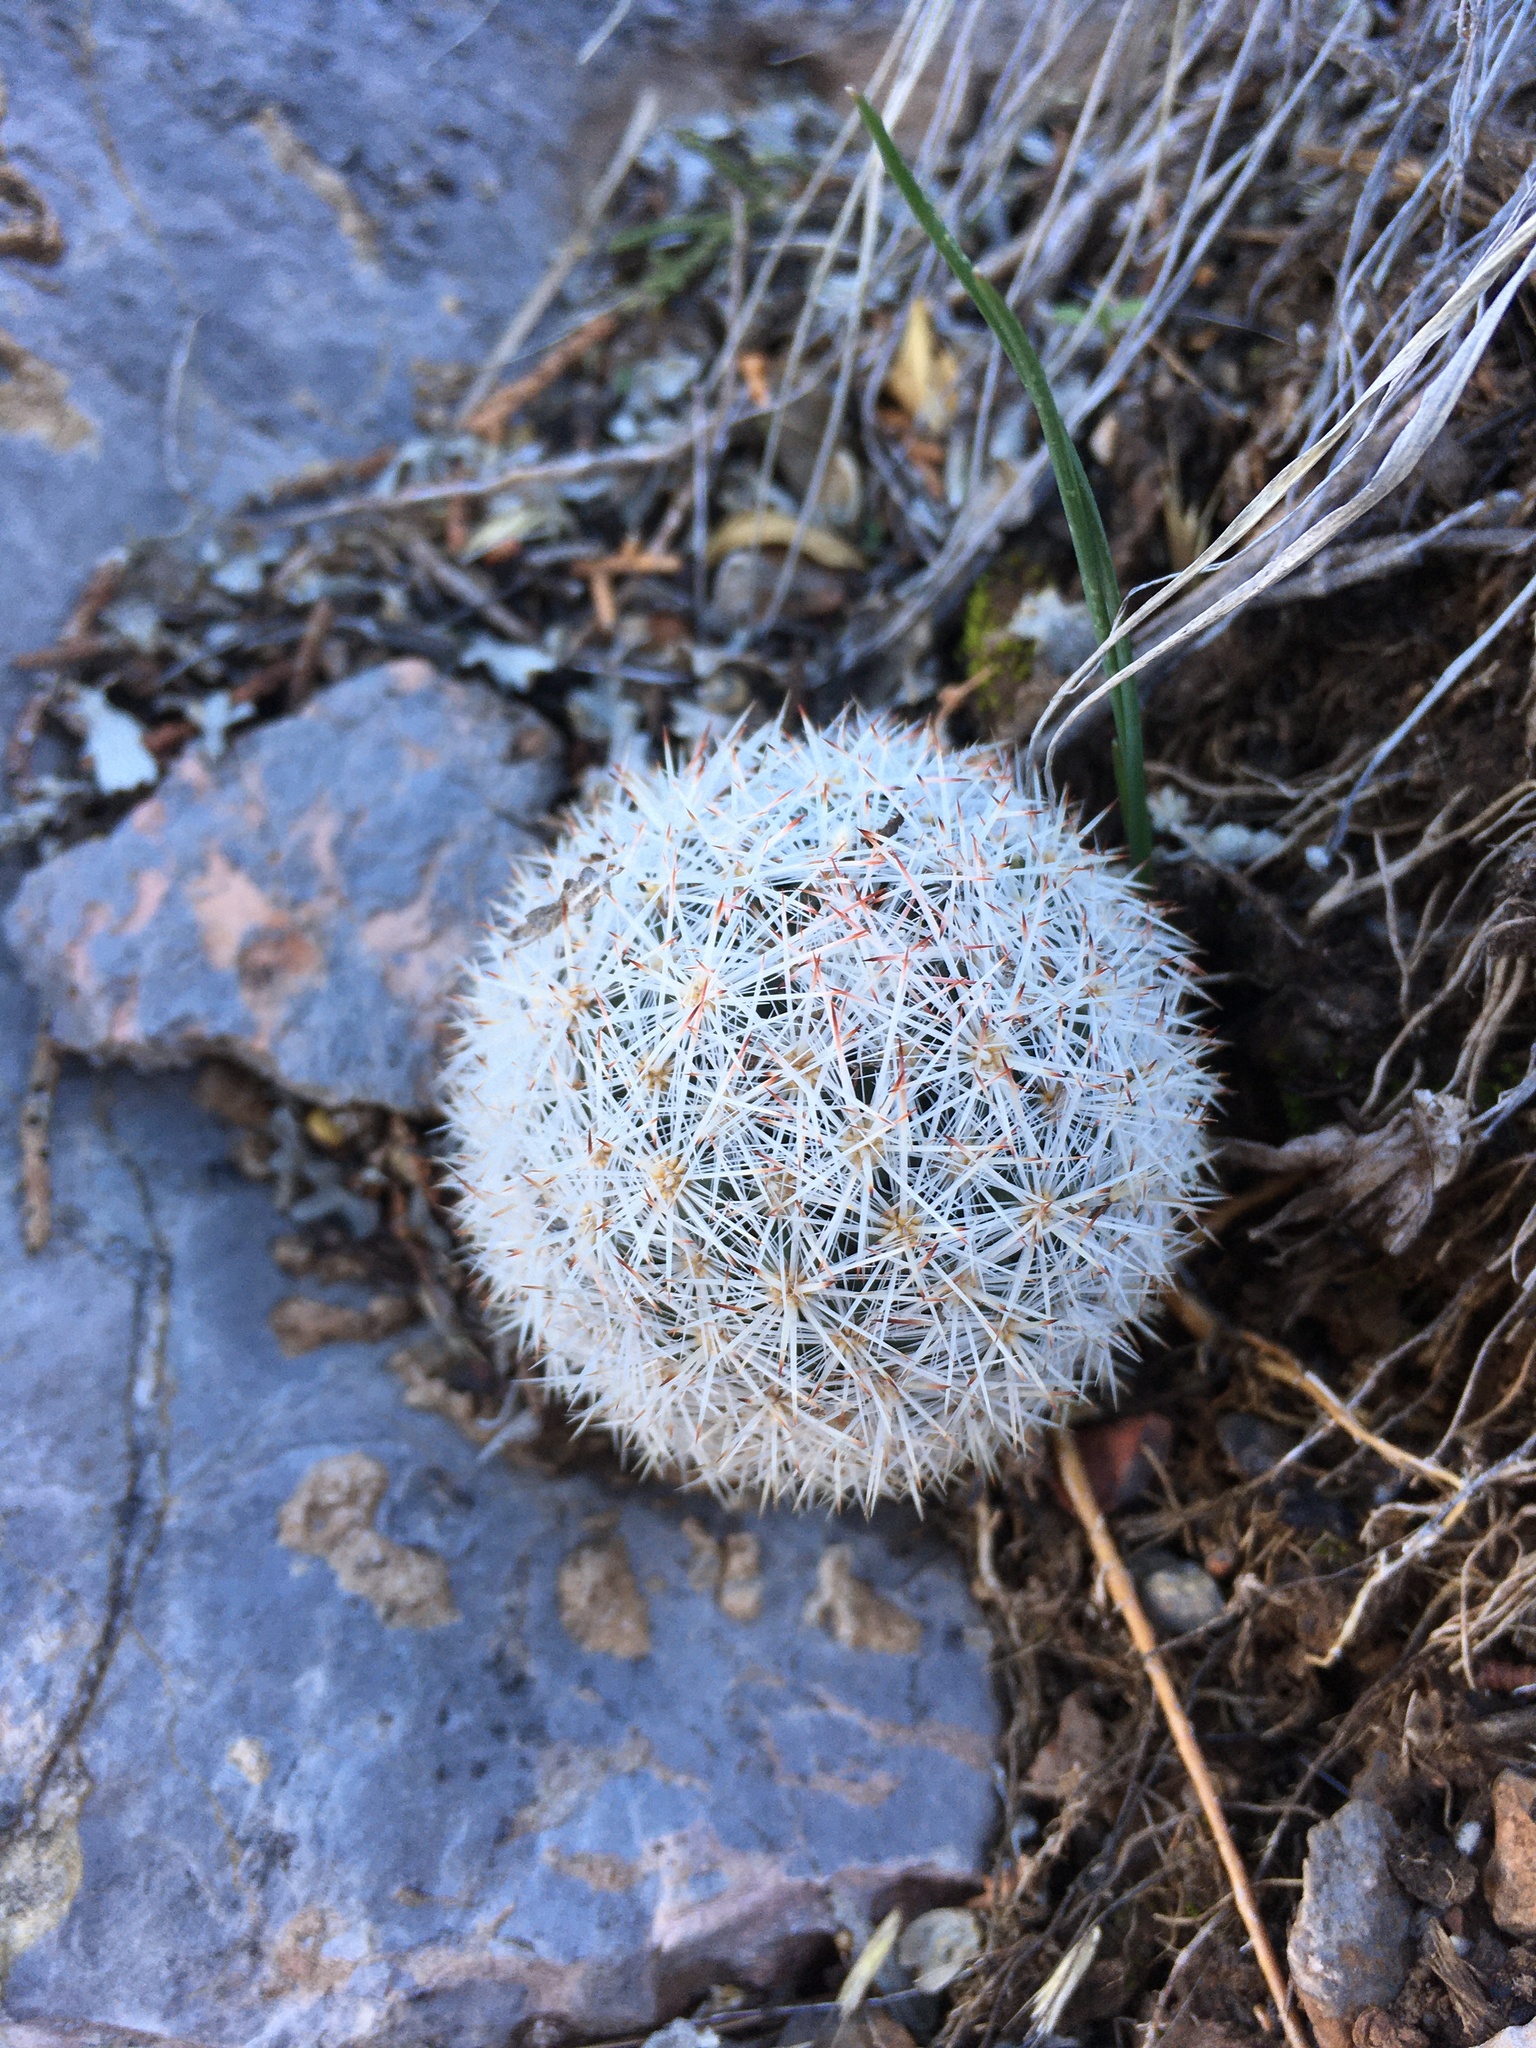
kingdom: Plantae
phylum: Tracheophyta
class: Magnoliopsida
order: Caryophyllales
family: Cactaceae
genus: Pelecyphora
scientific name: Pelecyphora sneedii
